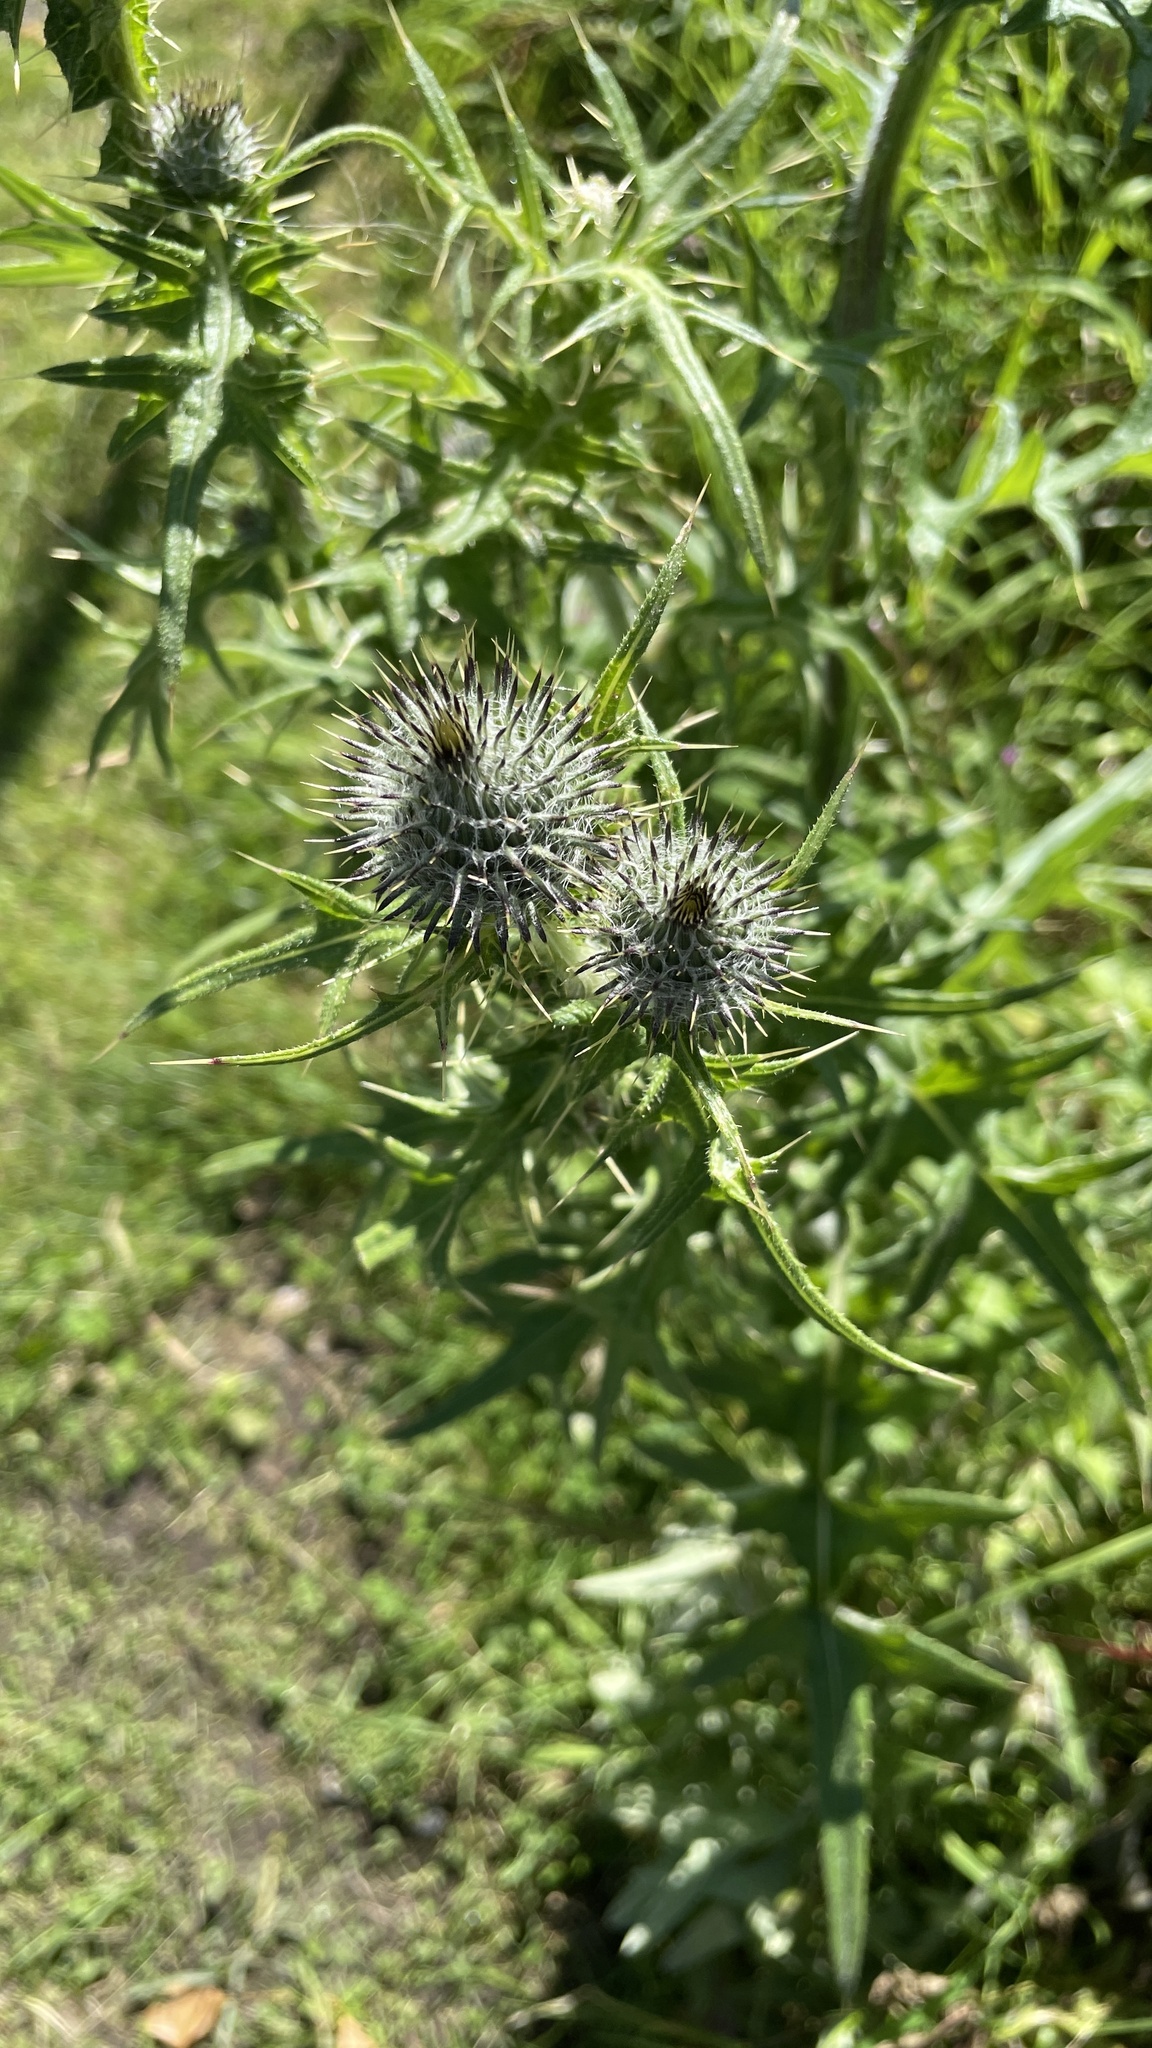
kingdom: Plantae
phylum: Tracheophyta
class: Magnoliopsida
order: Asterales
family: Asteraceae
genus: Cirsium
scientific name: Cirsium vulgare
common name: Bull thistle
